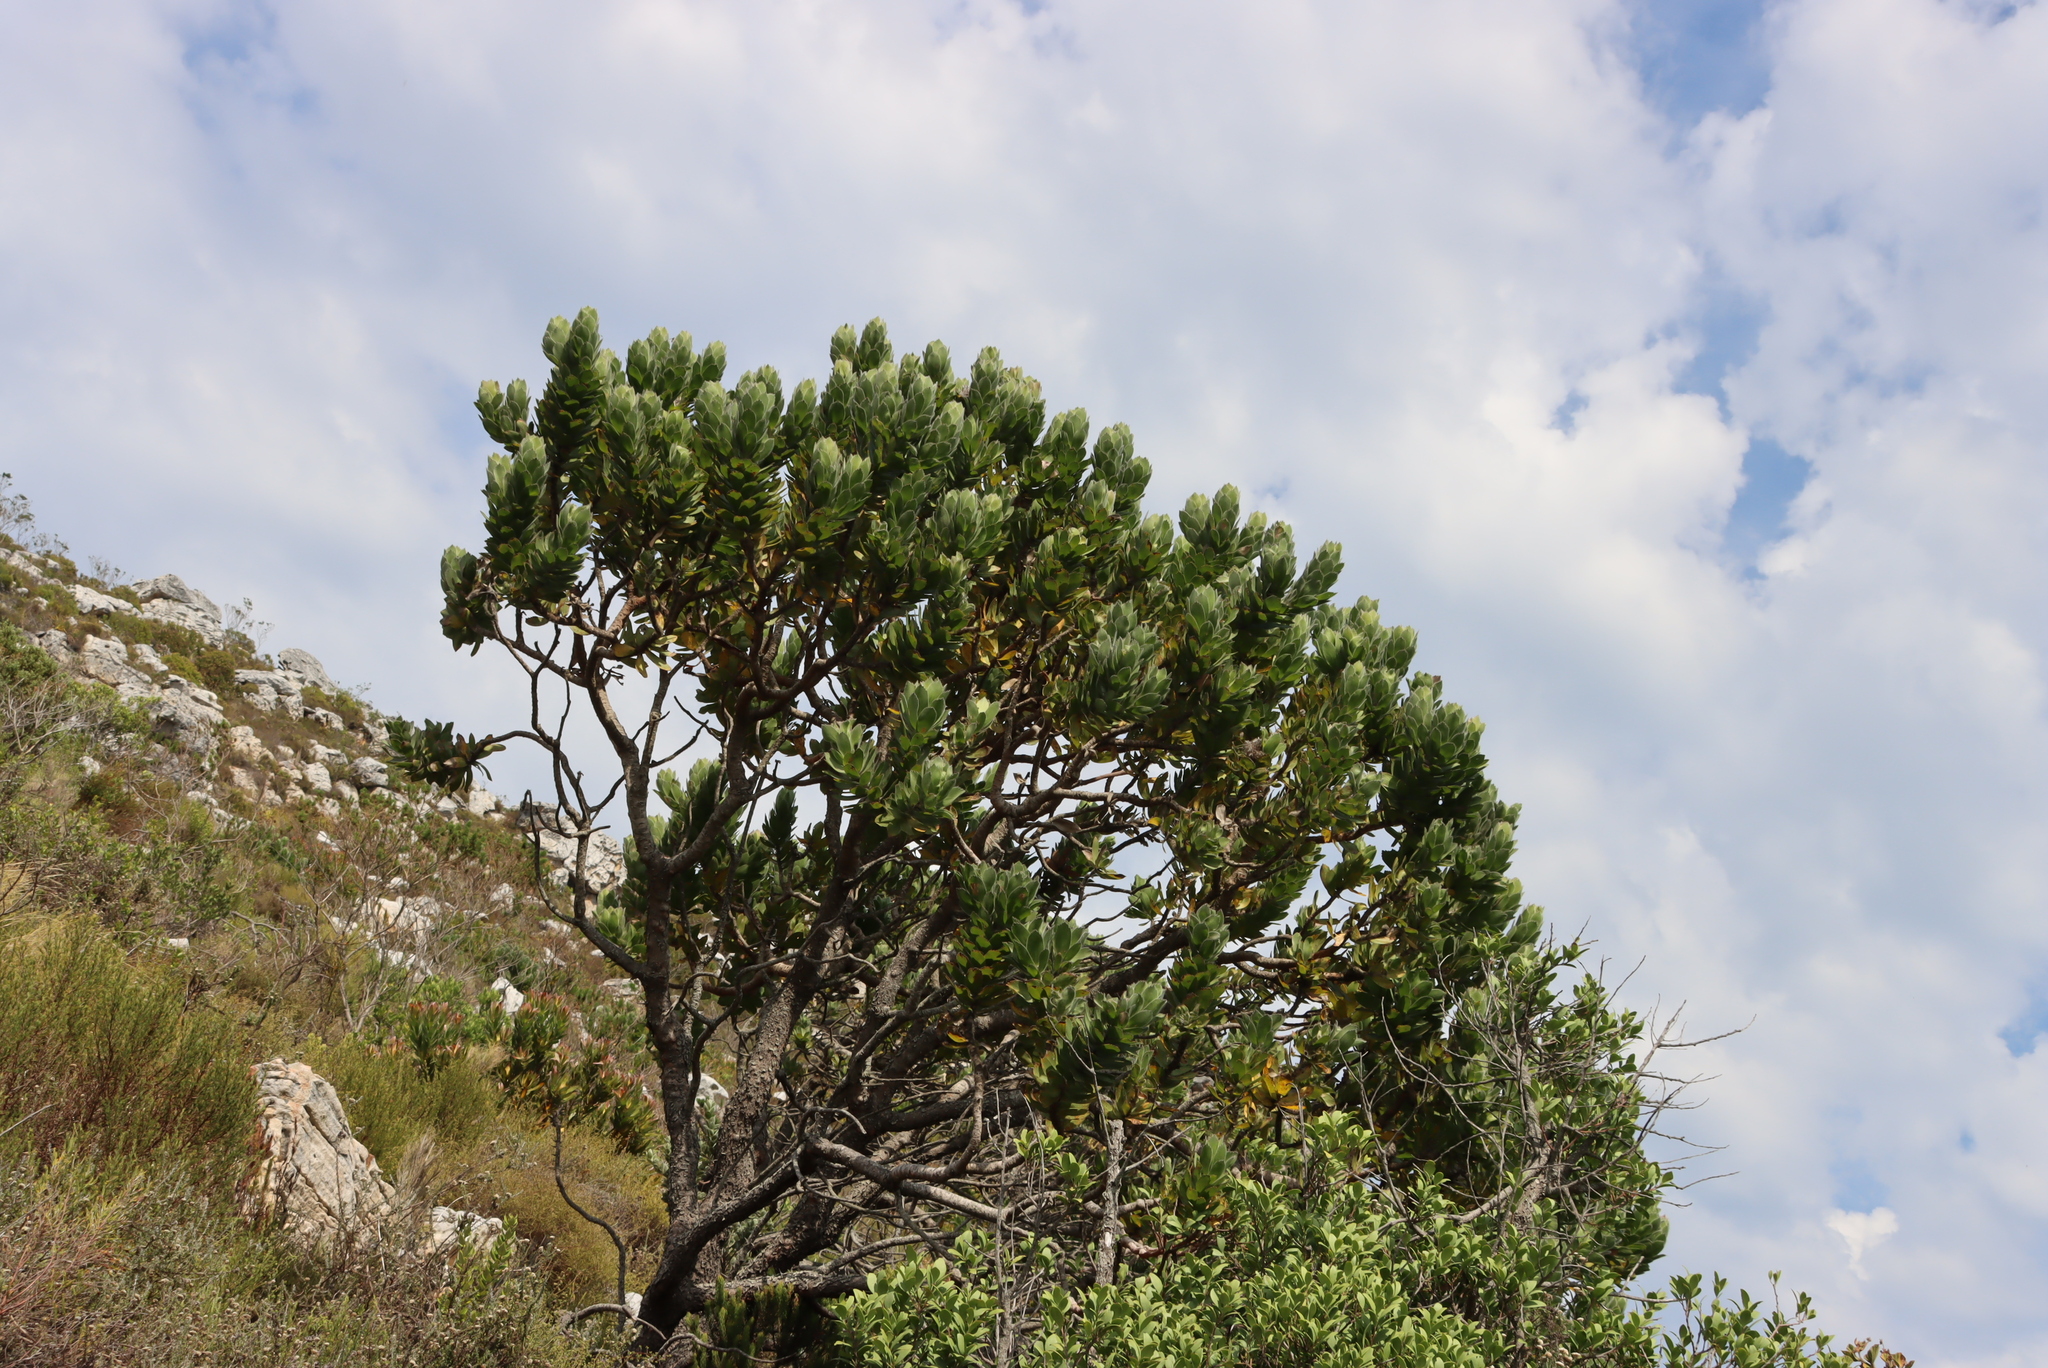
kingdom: Plantae
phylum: Tracheophyta
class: Magnoliopsida
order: Proteales
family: Proteaceae
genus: Leucospermum
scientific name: Leucospermum conocarpodendron
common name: Tree pincushion
